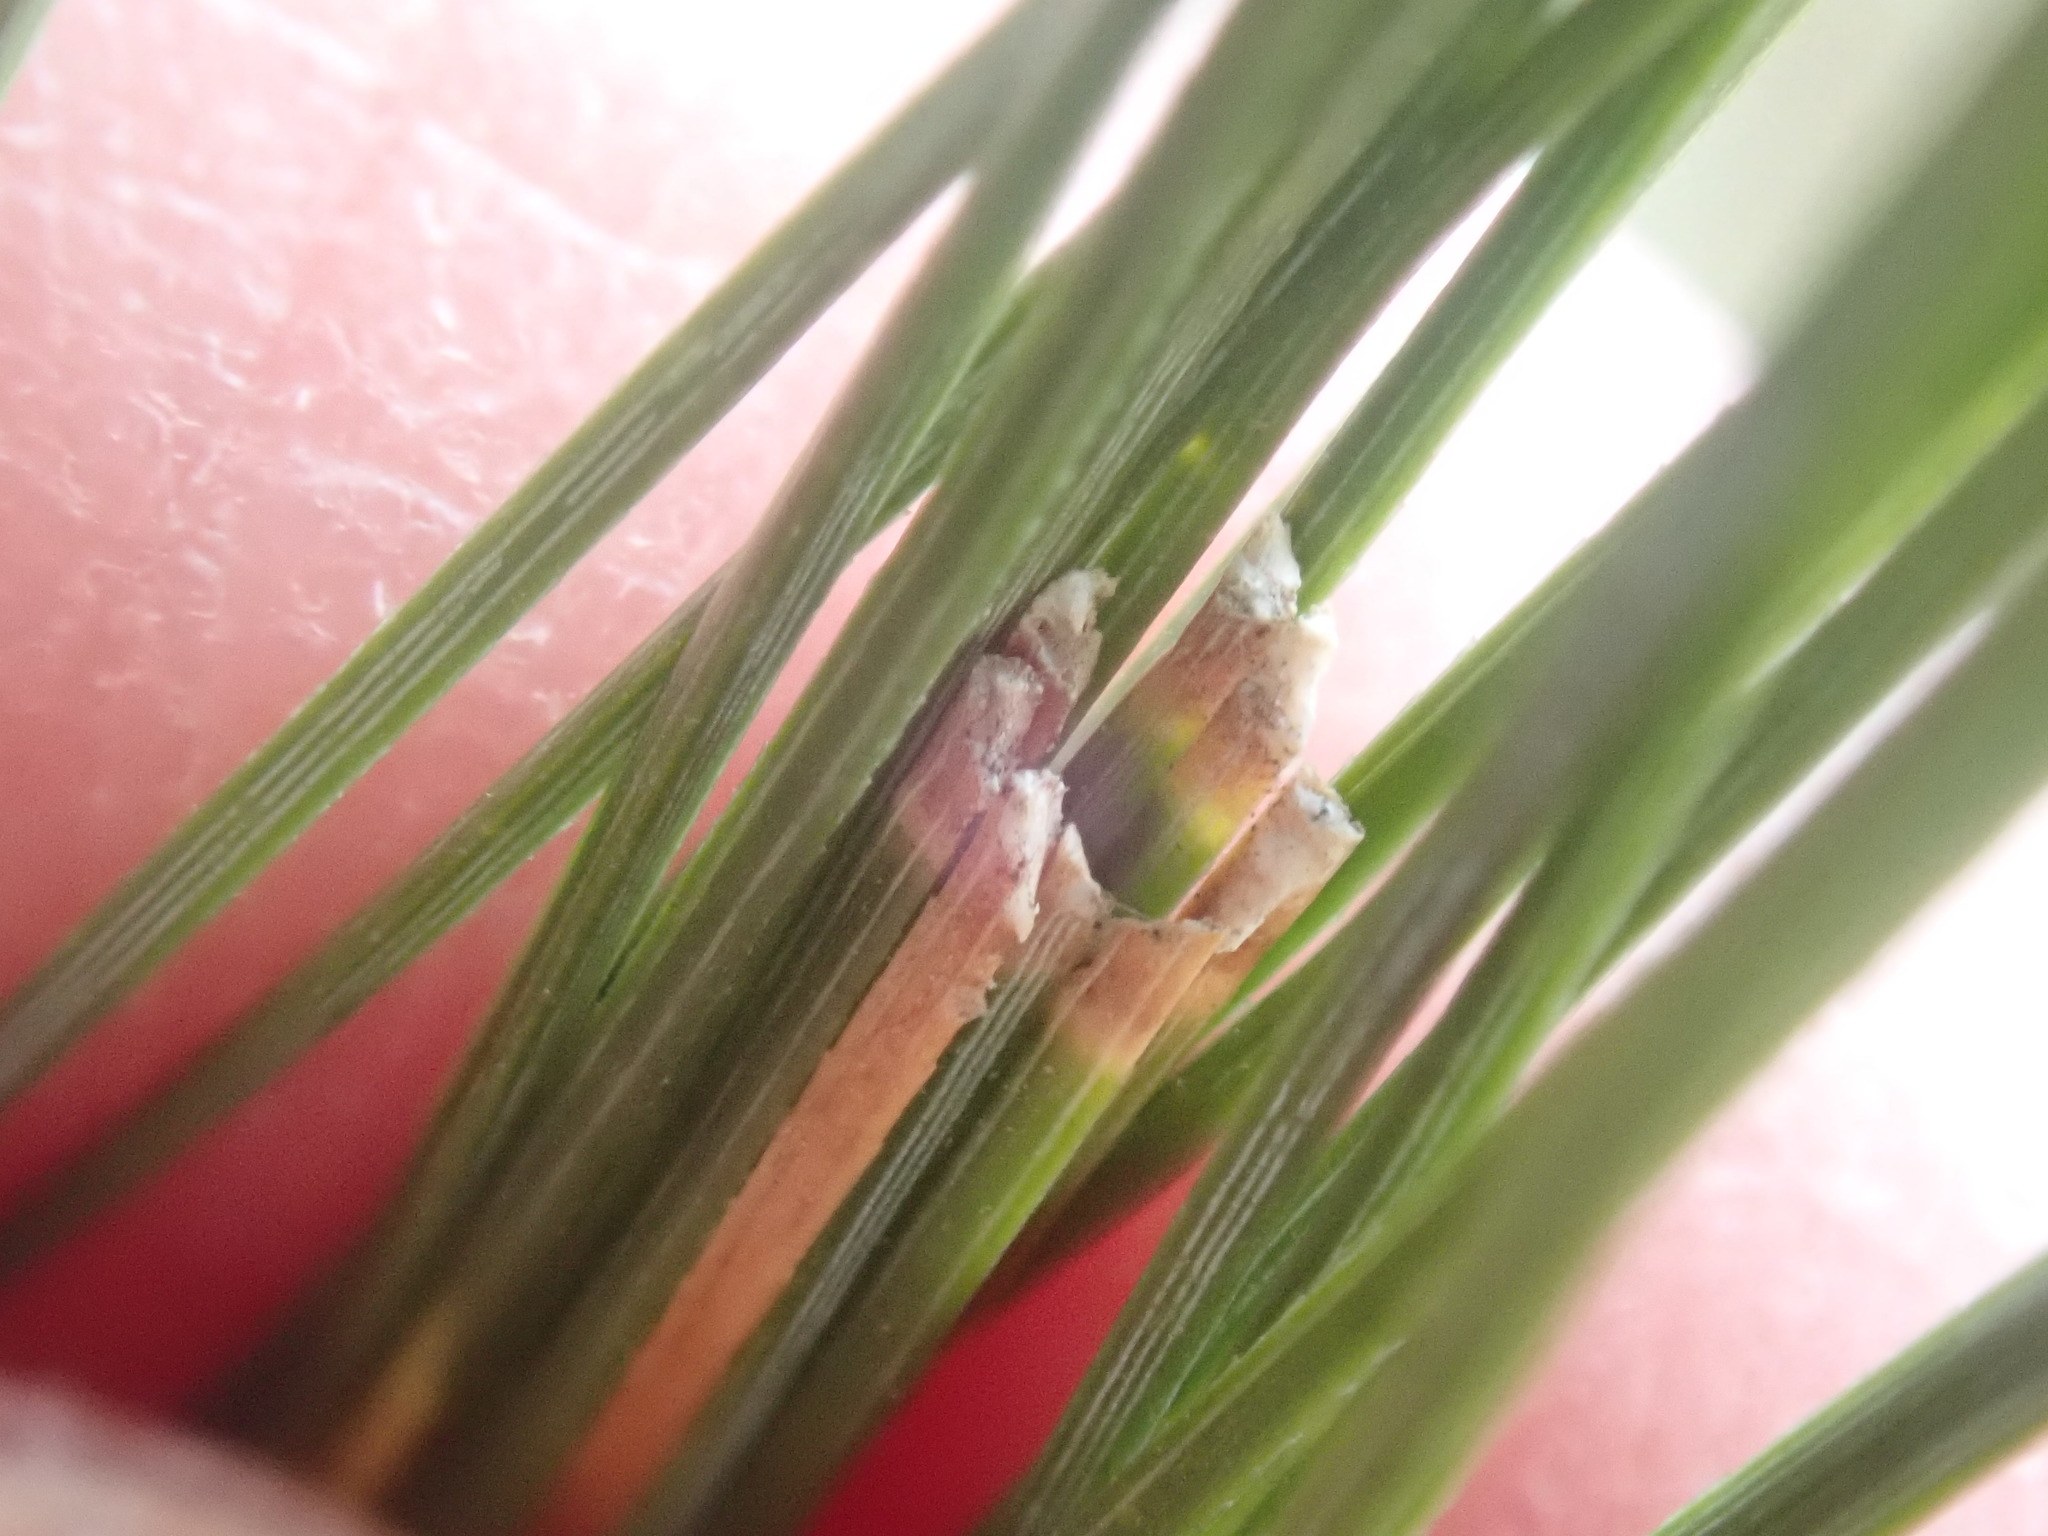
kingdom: Animalia
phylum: Arthropoda
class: Insecta
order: Lepidoptera
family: Tortricidae
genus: Argyrotaenia
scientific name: Argyrotaenia pinatubana
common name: Pine tube moth
